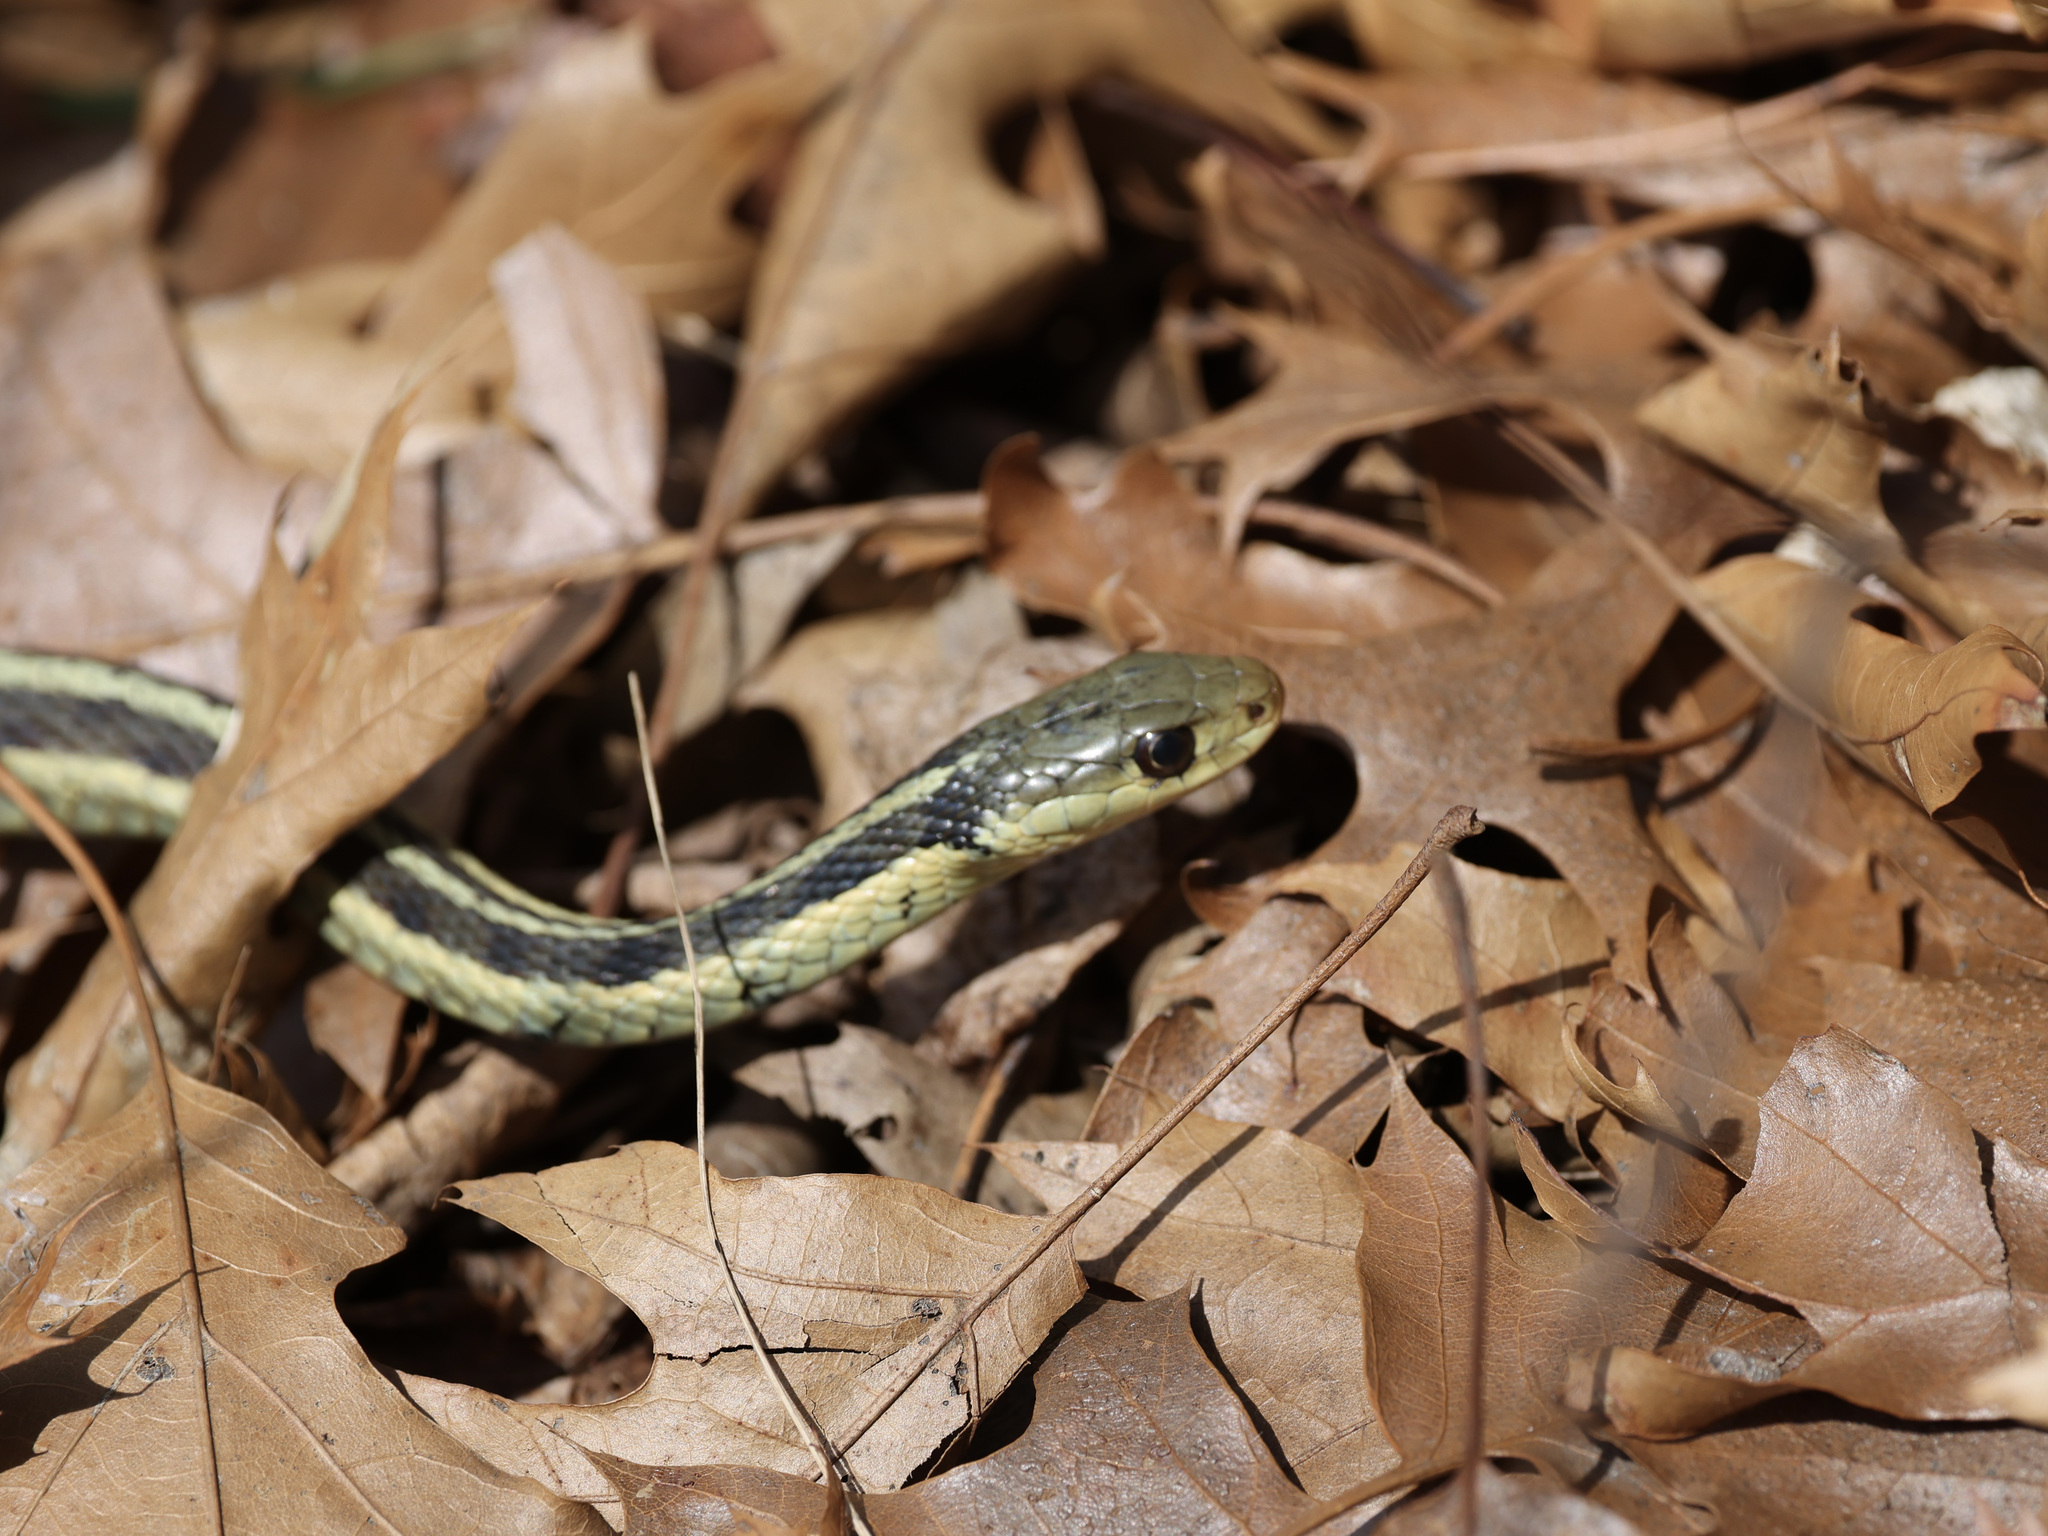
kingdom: Animalia
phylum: Chordata
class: Squamata
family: Colubridae
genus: Thamnophis
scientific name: Thamnophis sirtalis
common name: Common garter snake
